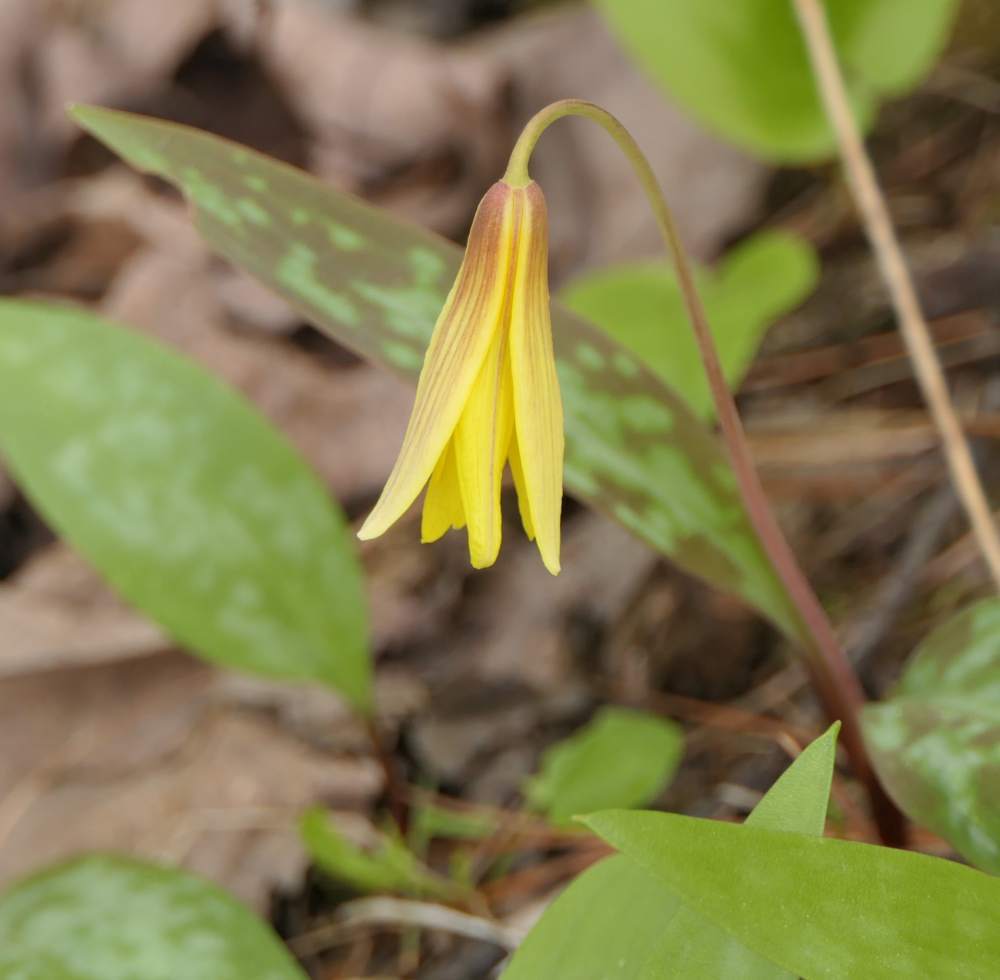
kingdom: Plantae
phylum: Tracheophyta
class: Liliopsida
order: Liliales
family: Liliaceae
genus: Erythronium
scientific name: Erythronium americanum
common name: Yellow adder's-tongue
